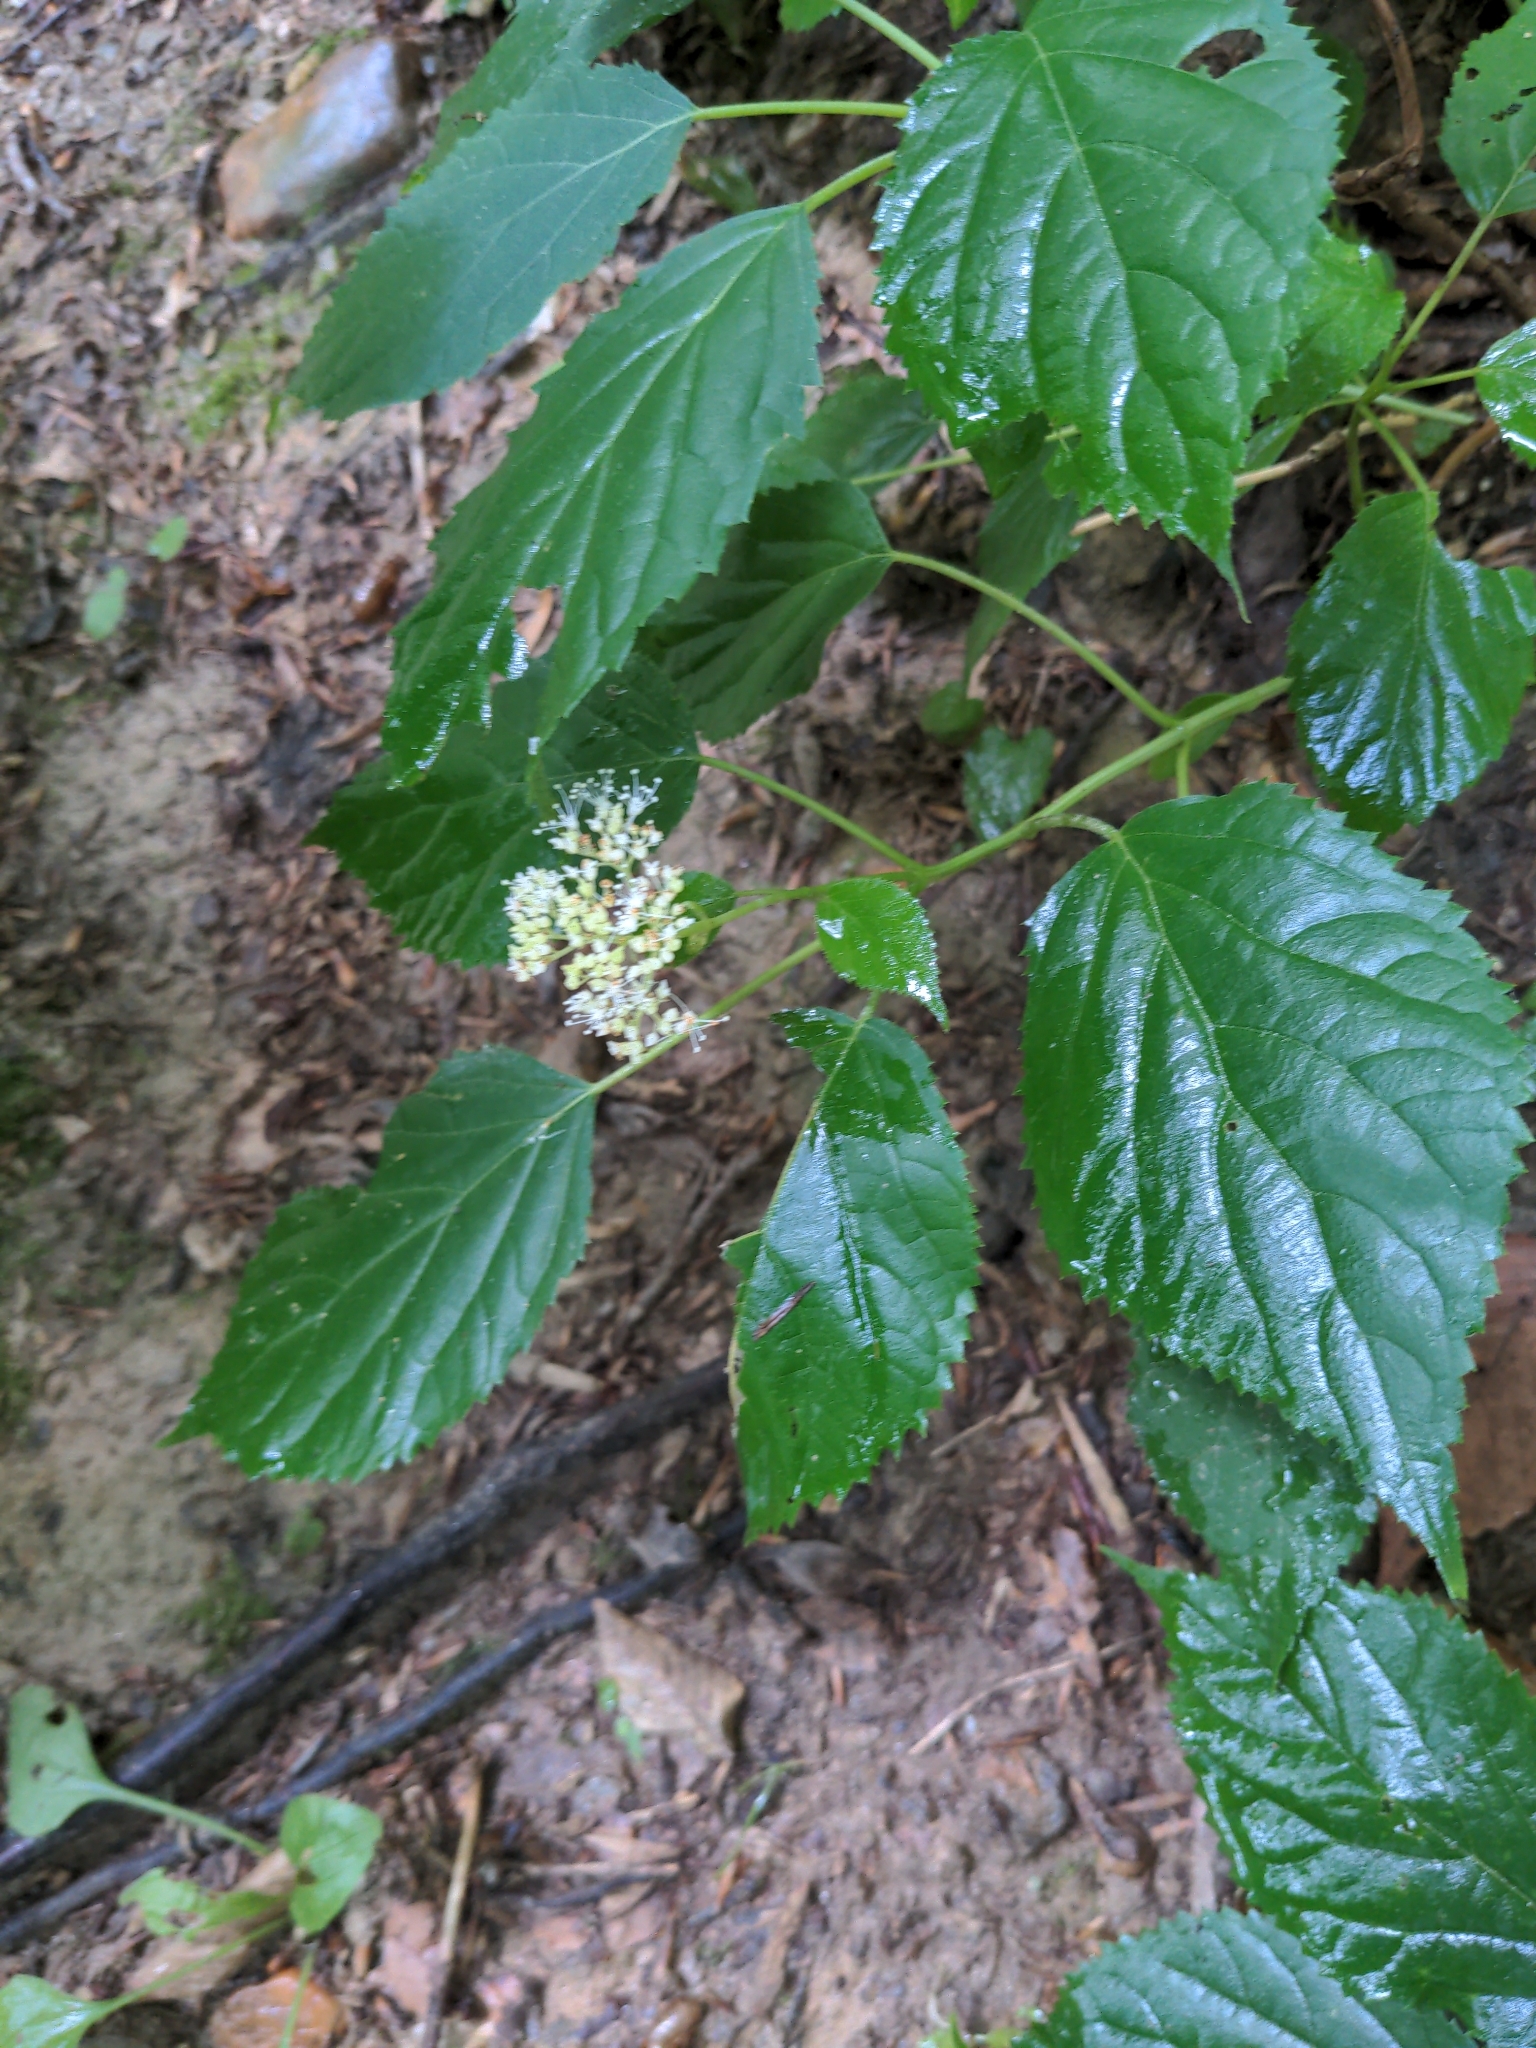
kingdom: Plantae
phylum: Tracheophyta
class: Magnoliopsida
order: Cornales
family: Hydrangeaceae
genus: Hydrangea
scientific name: Hydrangea arborescens
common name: Sevenbark
